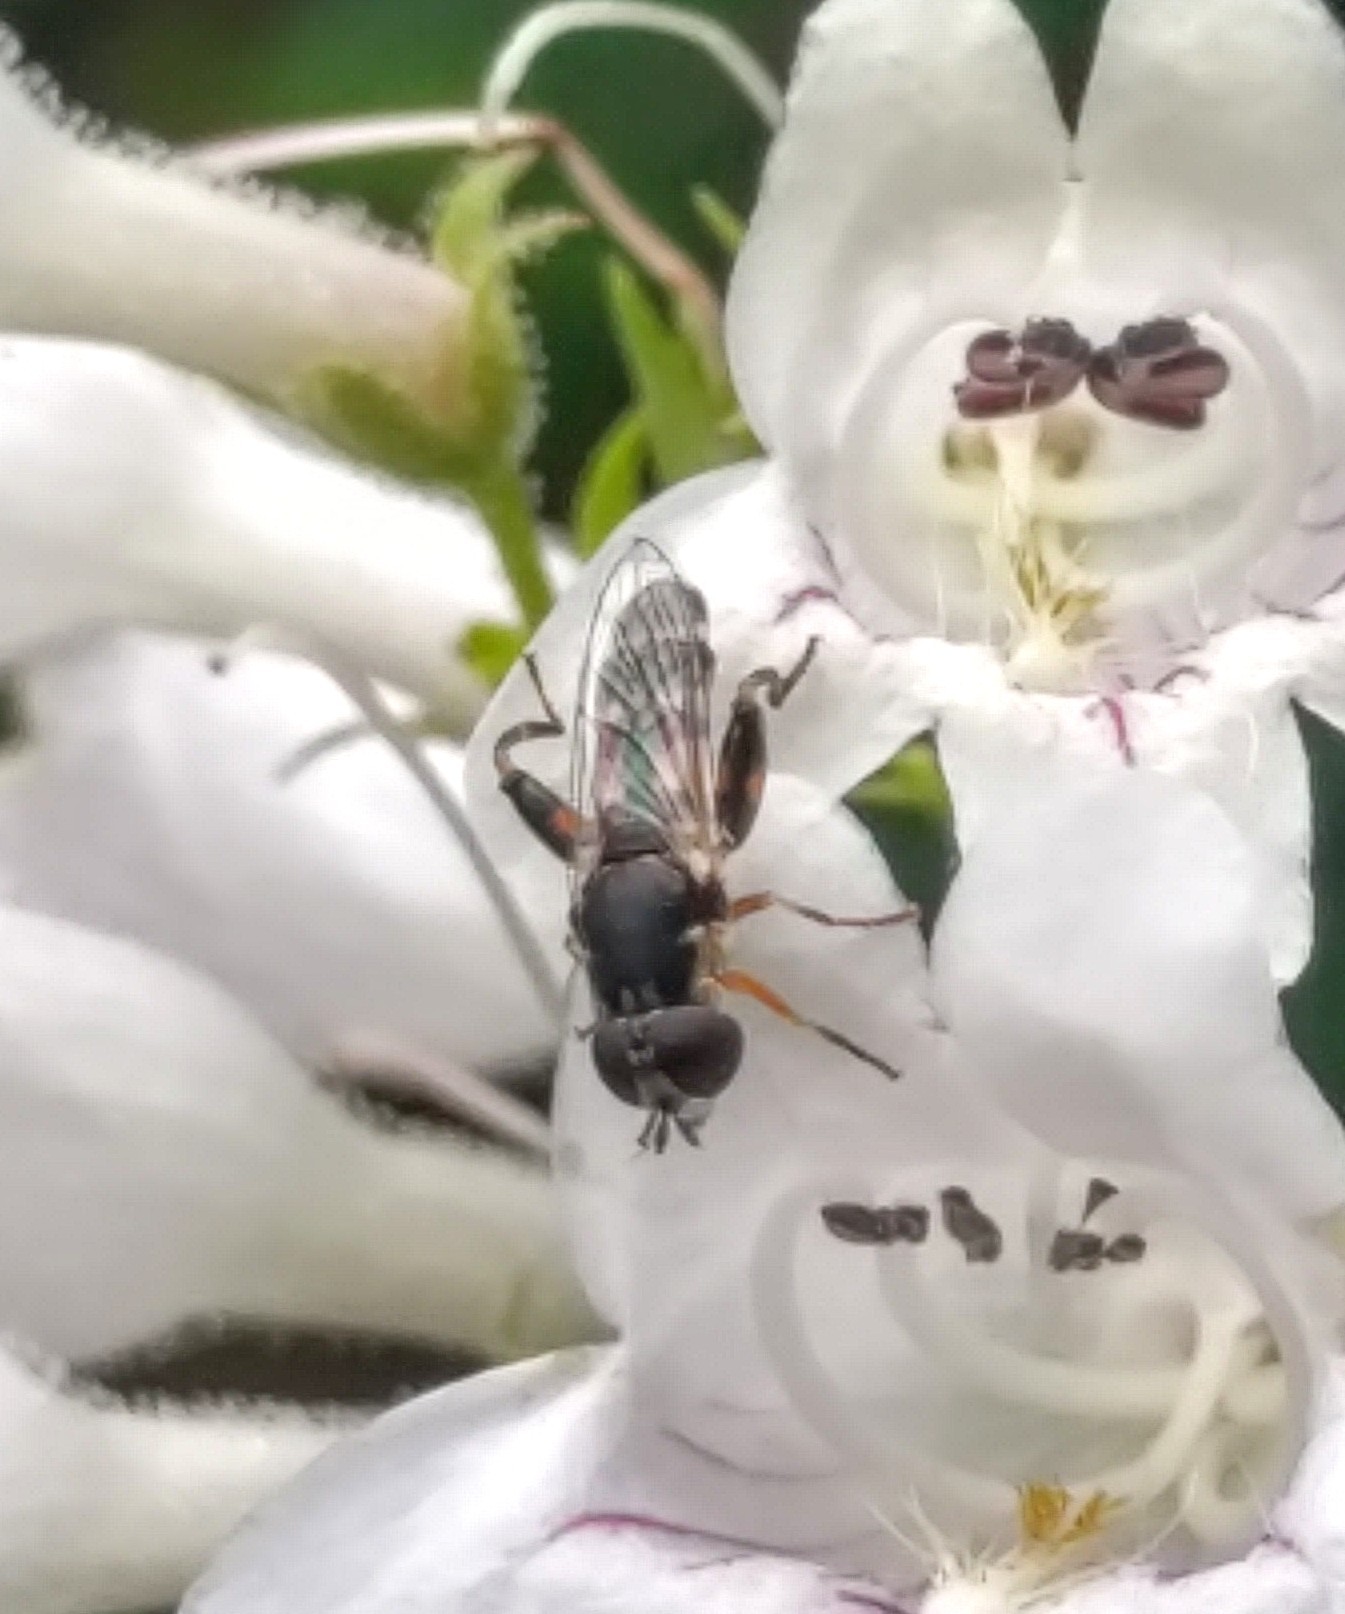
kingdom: Animalia
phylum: Arthropoda
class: Insecta
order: Diptera
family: Syrphidae
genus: Syritta
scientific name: Syritta pipiens
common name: Hover fly
